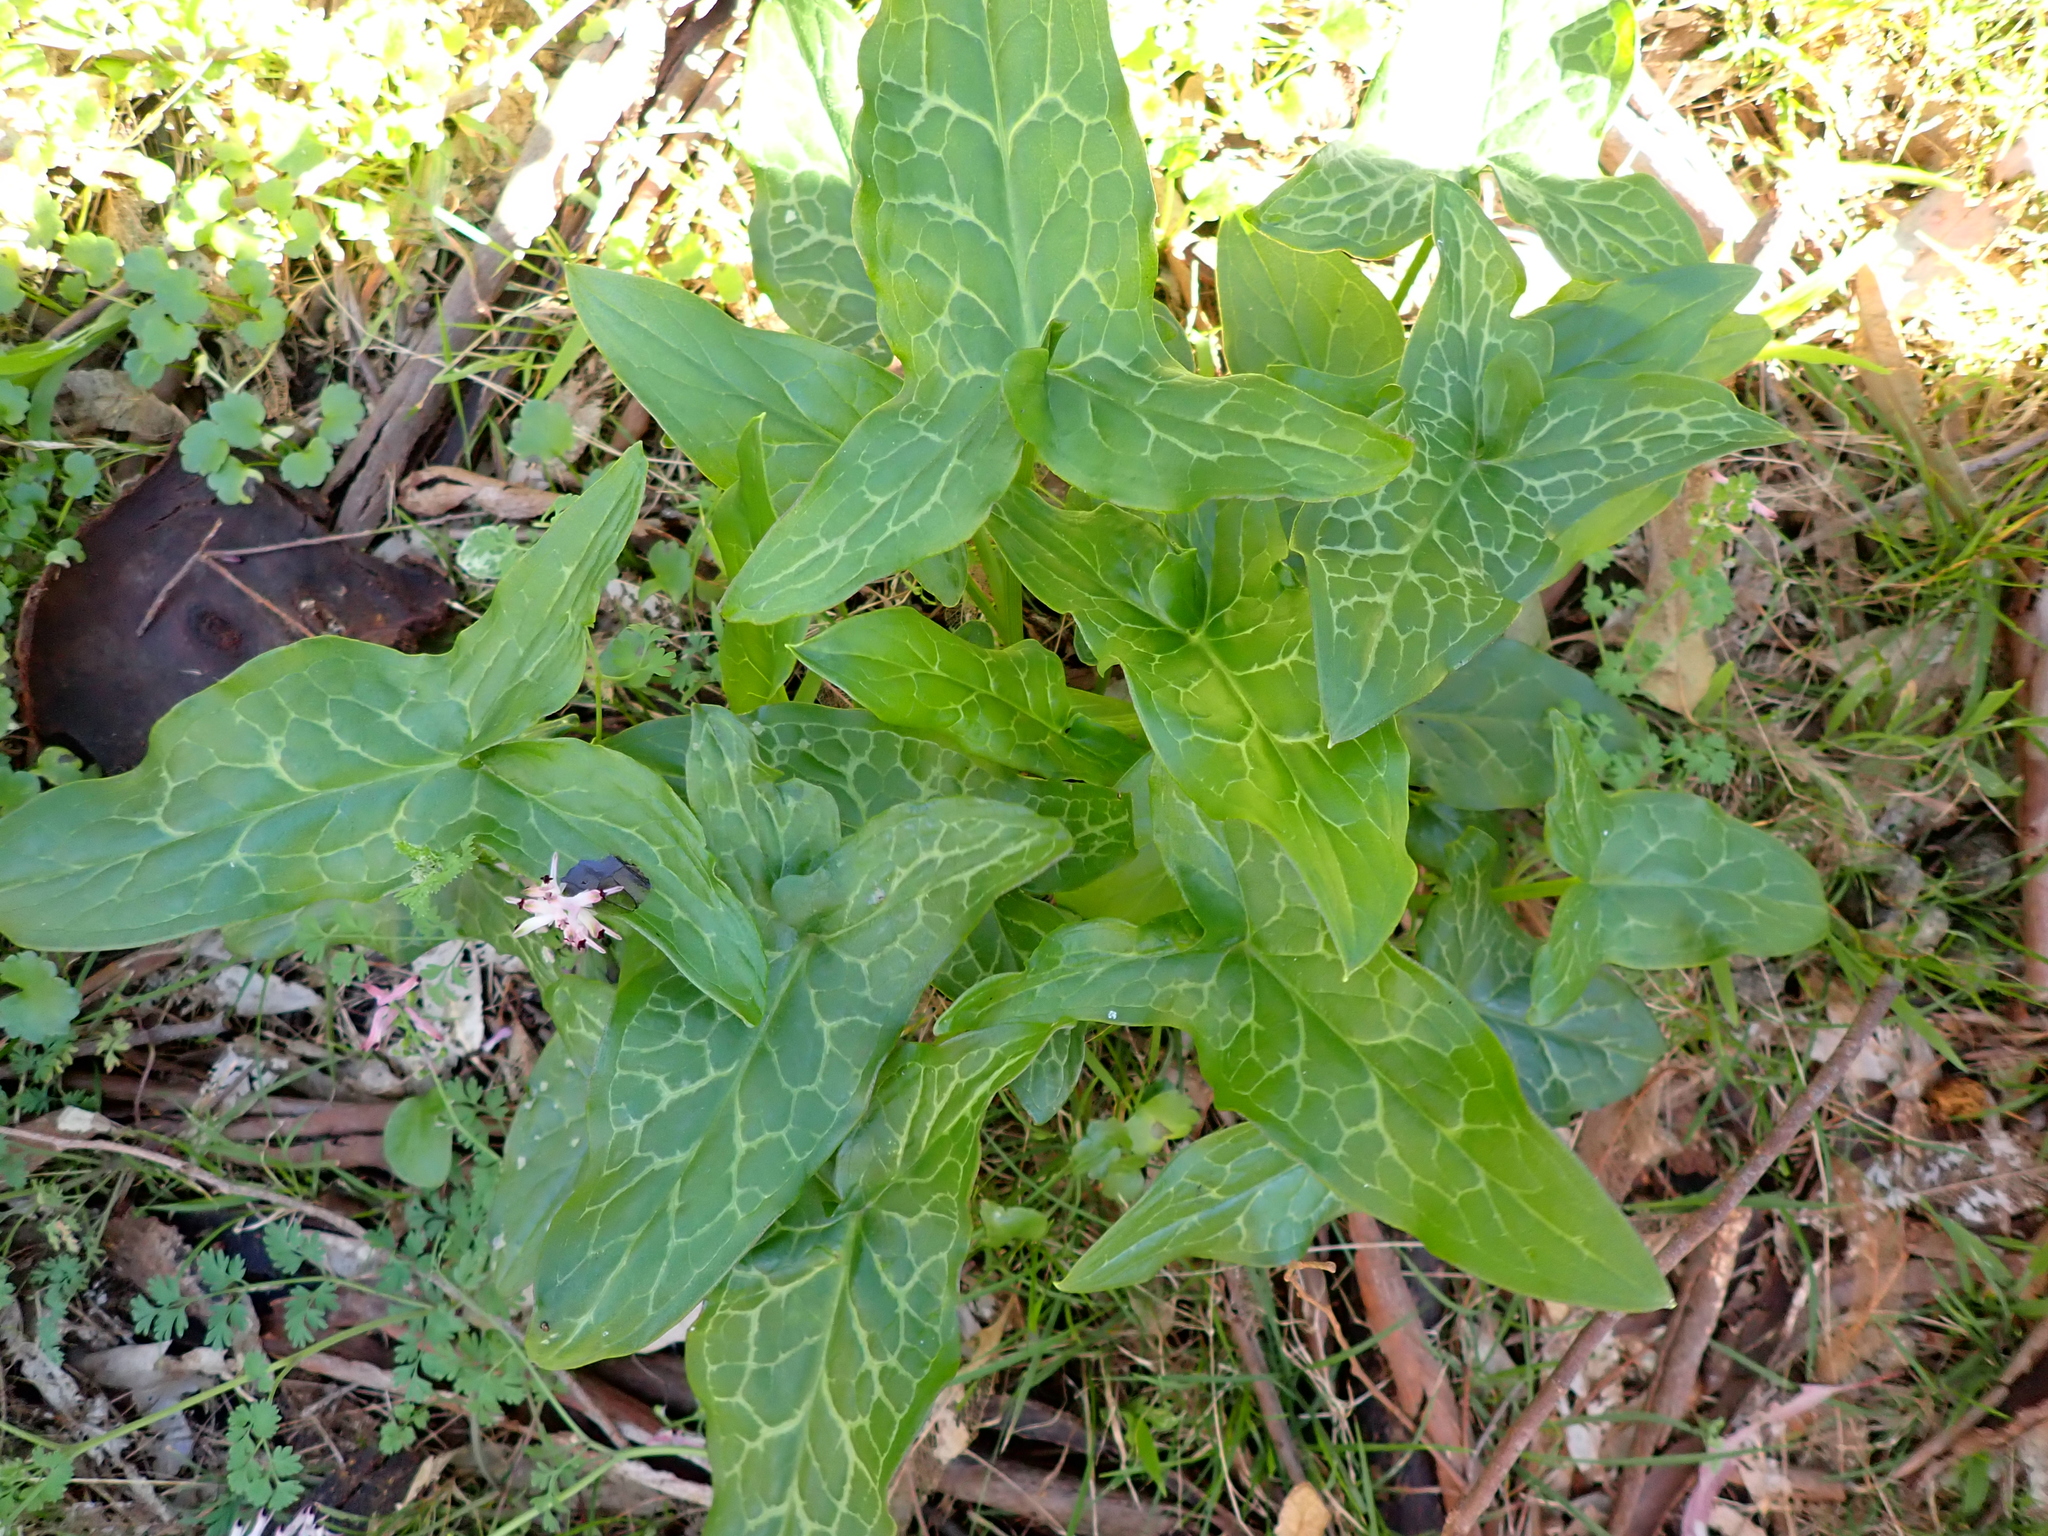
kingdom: Plantae
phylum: Tracheophyta
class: Liliopsida
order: Alismatales
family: Araceae
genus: Arum
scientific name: Arum italicum
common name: Italian lords-and-ladies
